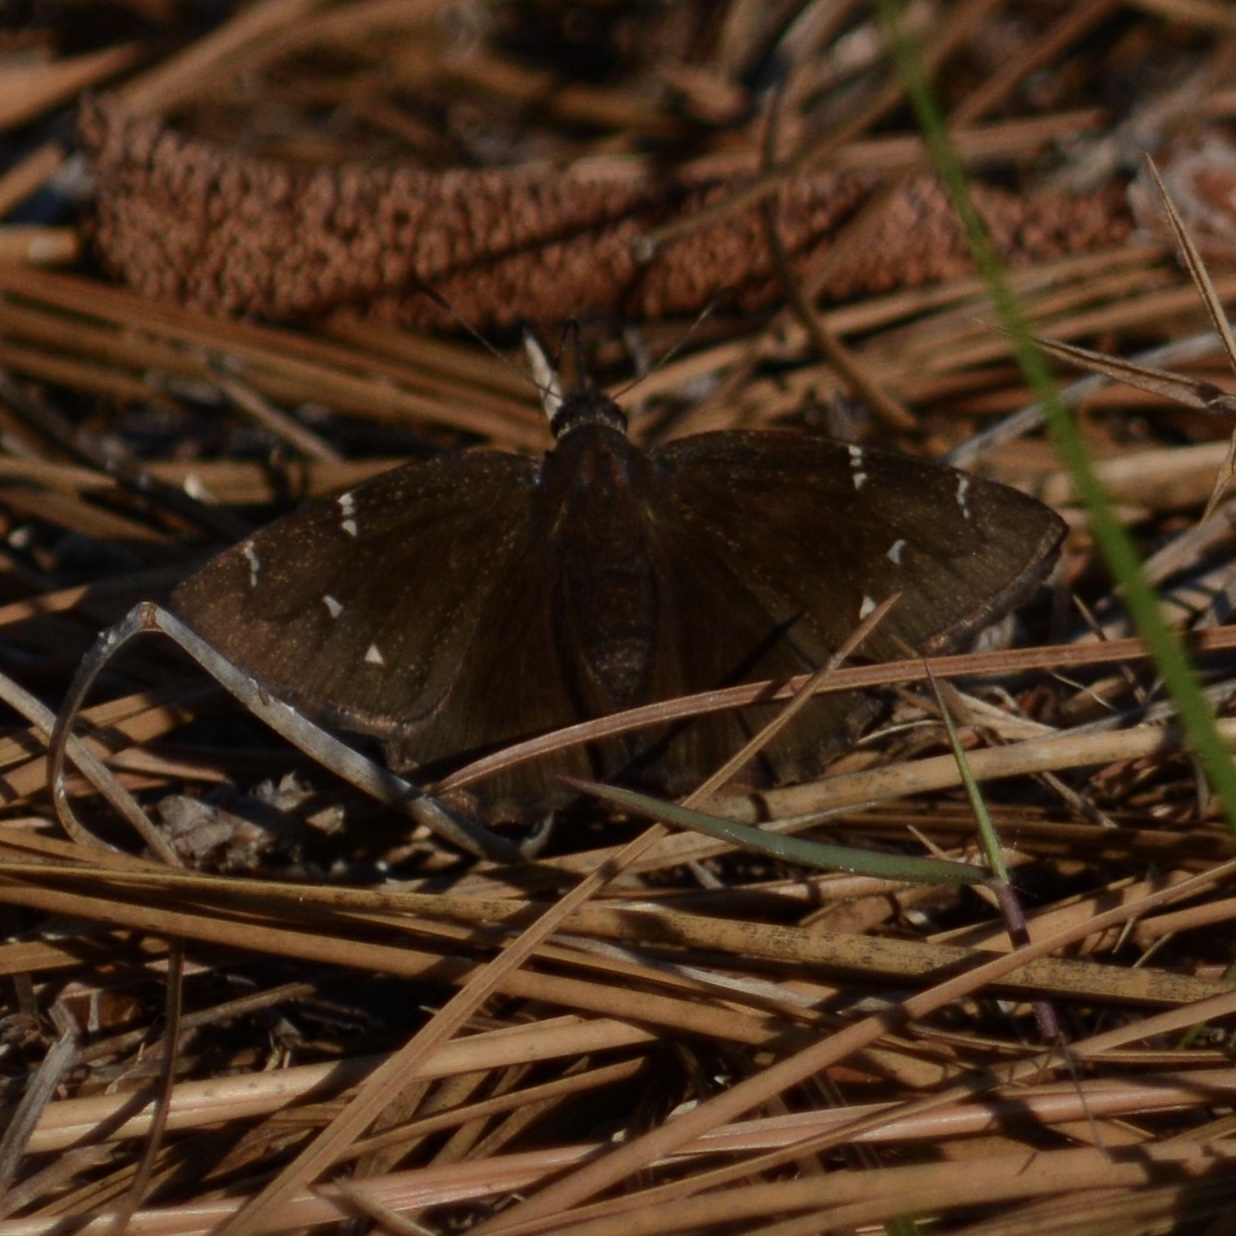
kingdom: Animalia
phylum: Arthropoda
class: Insecta
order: Lepidoptera
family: Hesperiidae
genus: Thorybes
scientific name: Thorybes pylades
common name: Northern cloudywing
